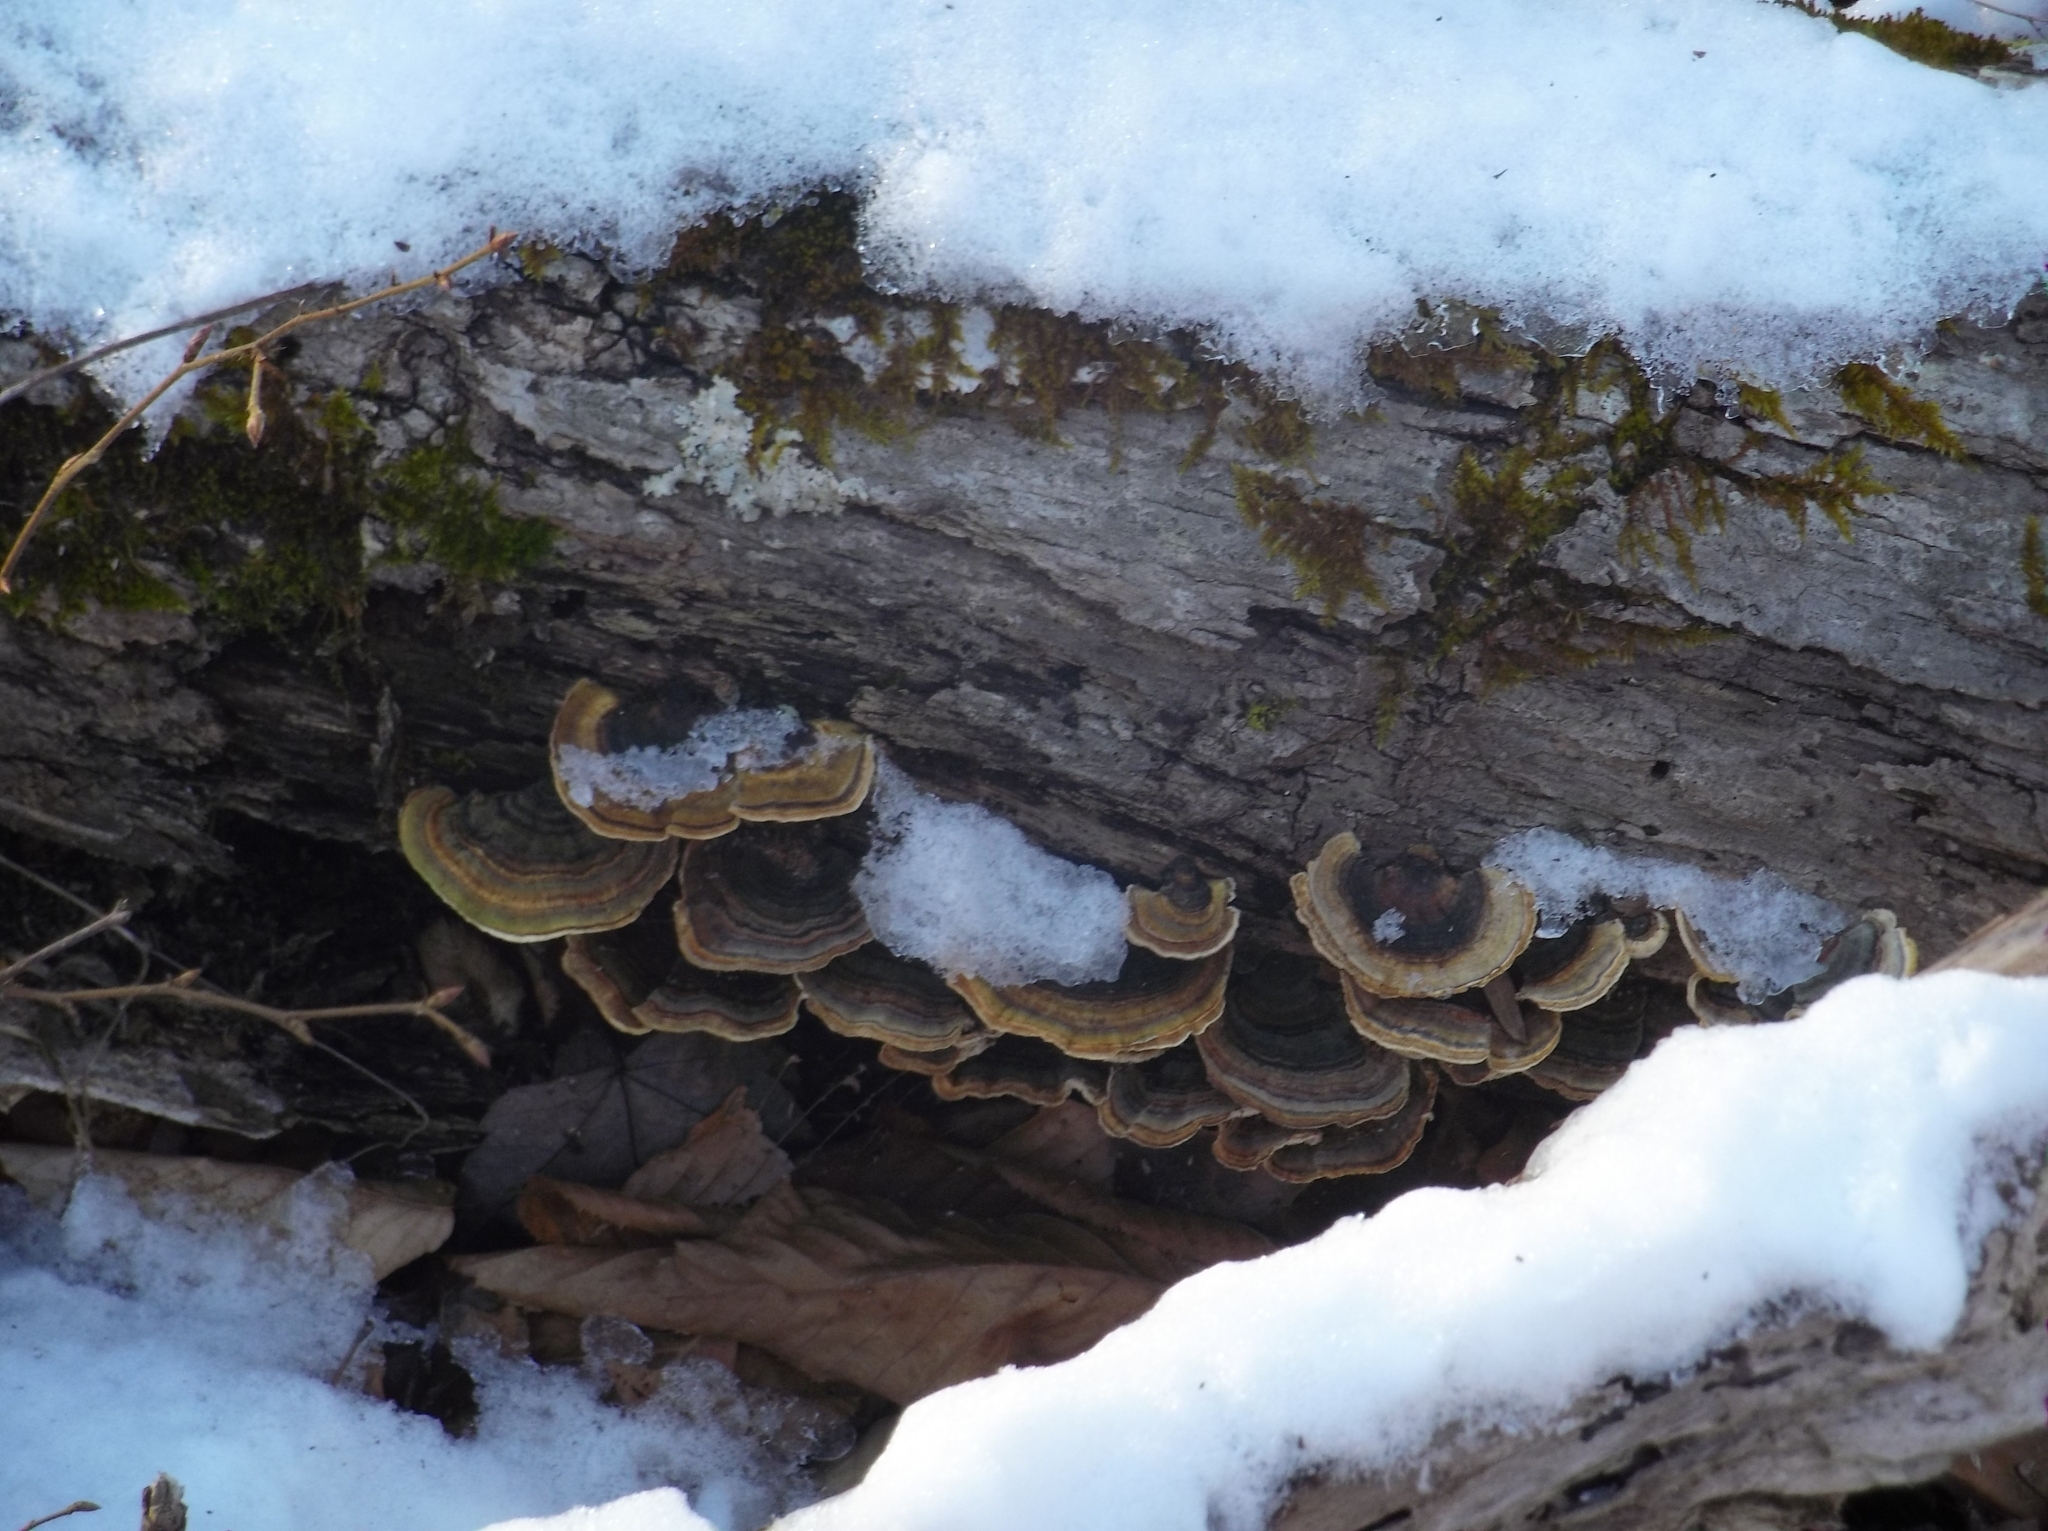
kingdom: Fungi
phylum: Basidiomycota
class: Agaricomycetes
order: Polyporales
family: Polyporaceae
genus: Trametes
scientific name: Trametes versicolor
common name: Turkeytail
